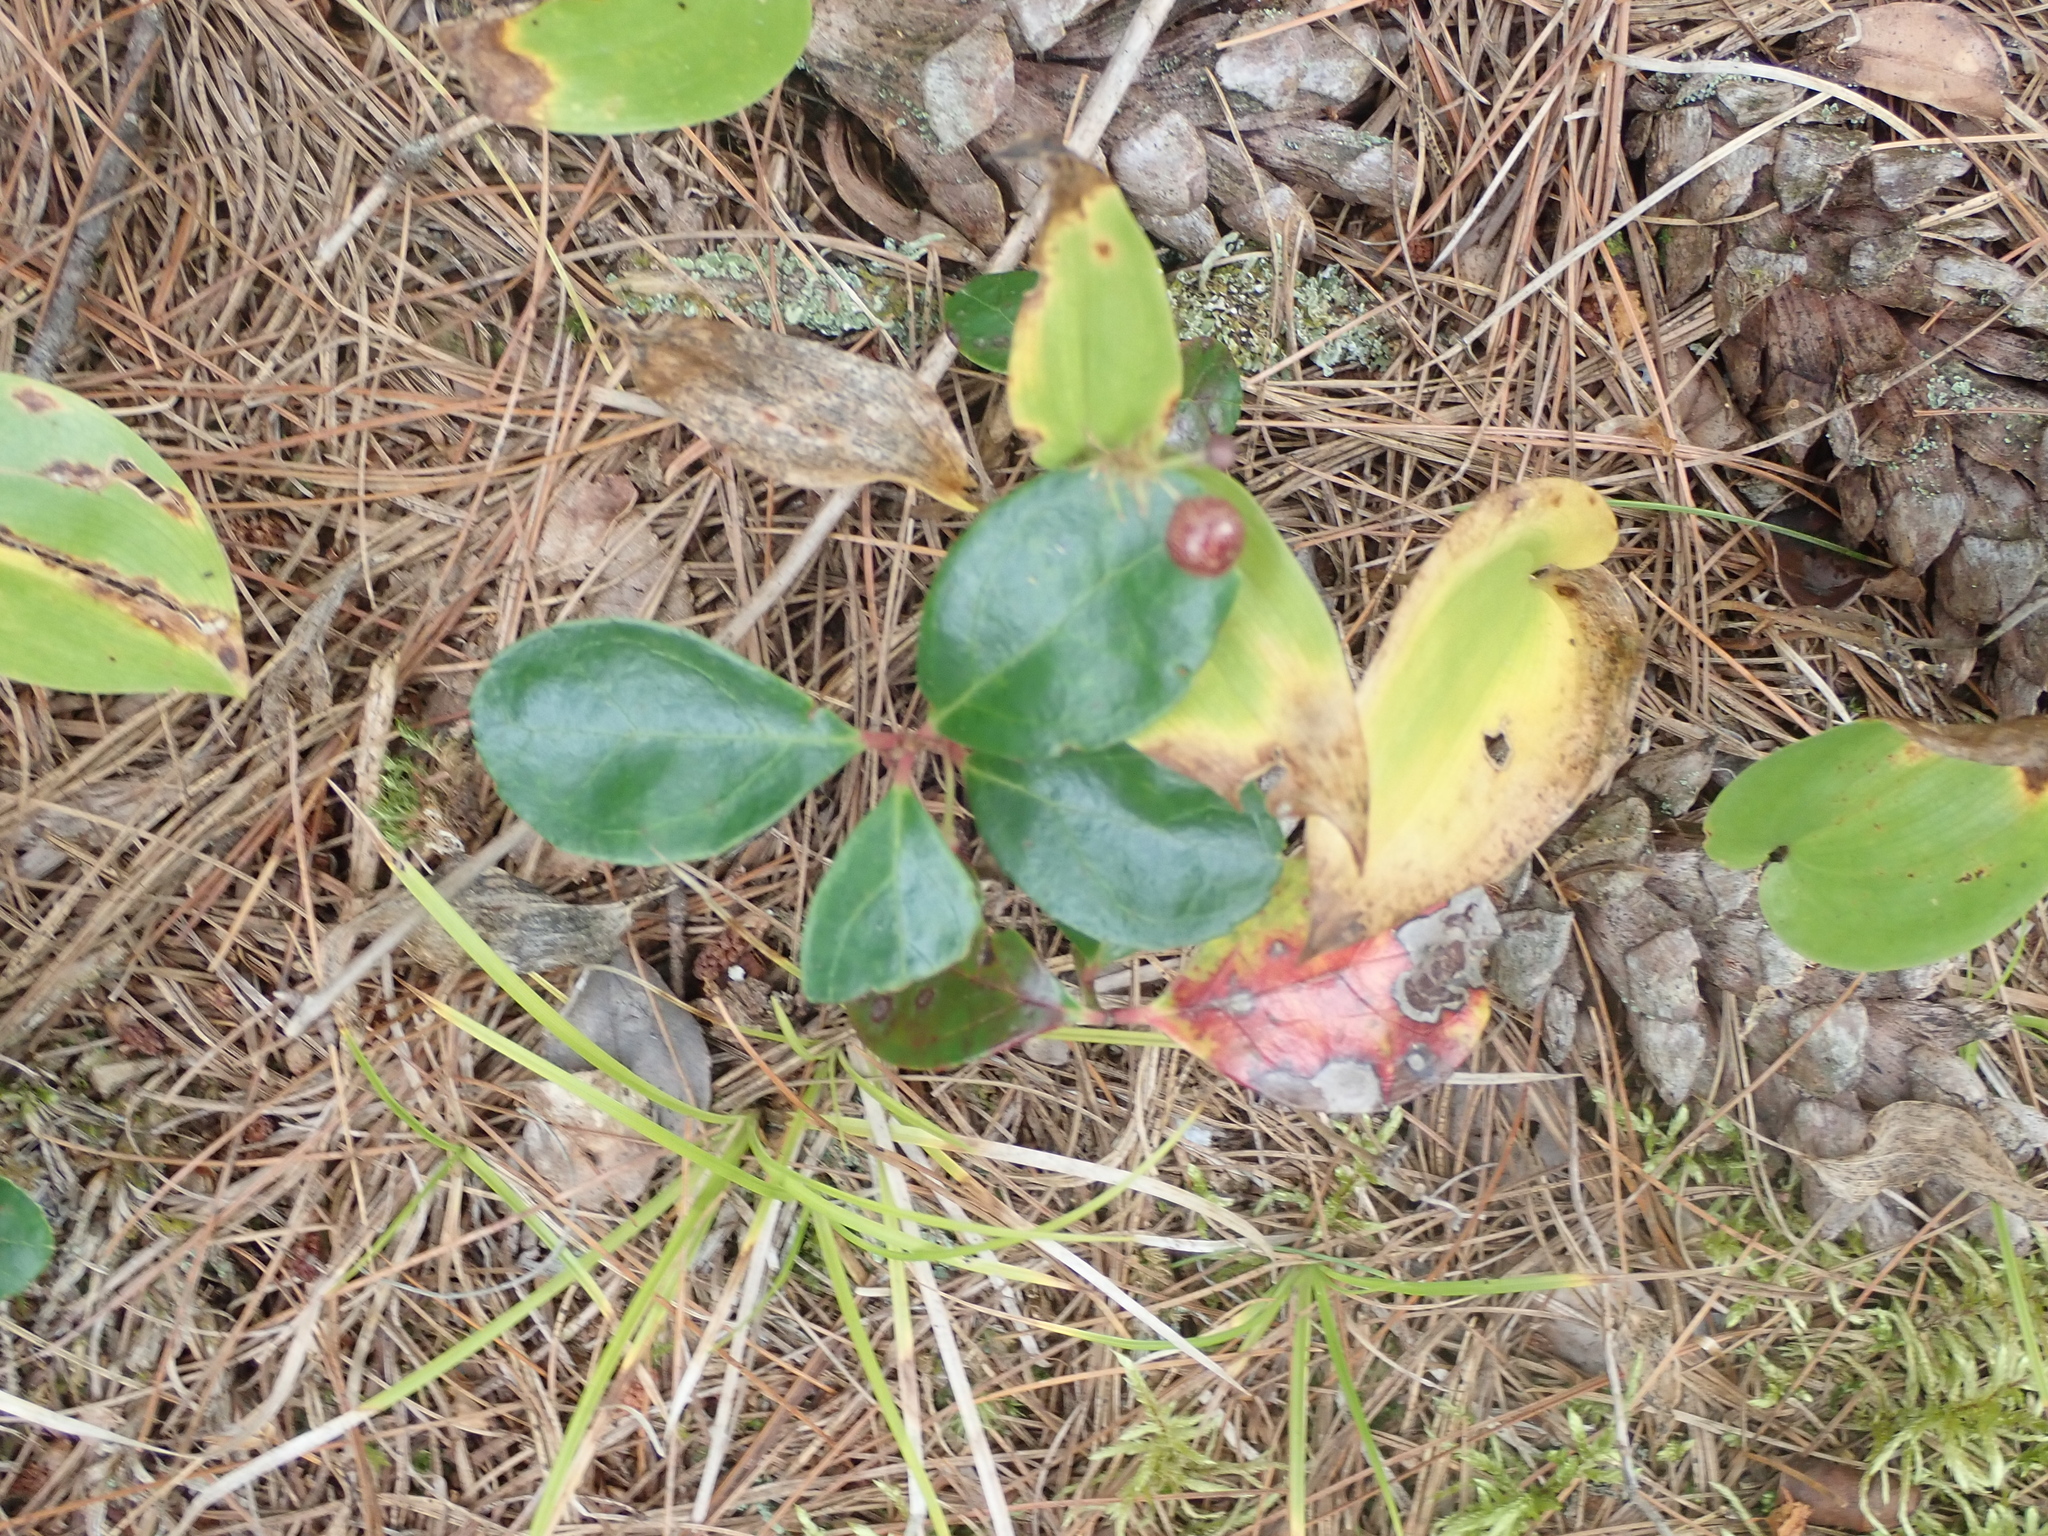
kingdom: Plantae
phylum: Tracheophyta
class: Magnoliopsida
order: Ericales
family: Ericaceae
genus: Gaultheria
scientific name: Gaultheria procumbens
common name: Checkerberry
